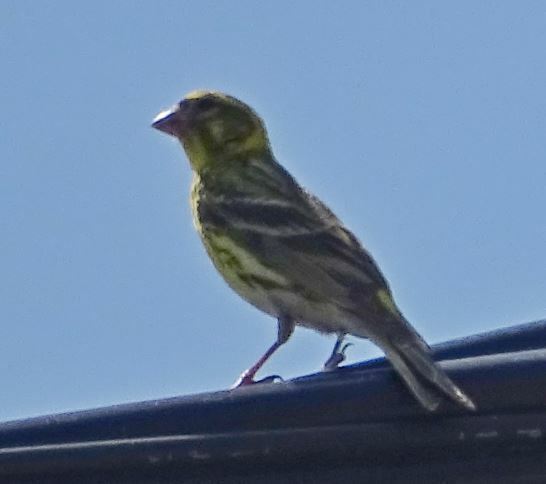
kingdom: Animalia
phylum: Chordata
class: Aves
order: Passeriformes
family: Fringillidae
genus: Serinus
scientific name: Serinus serinus
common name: European serin
